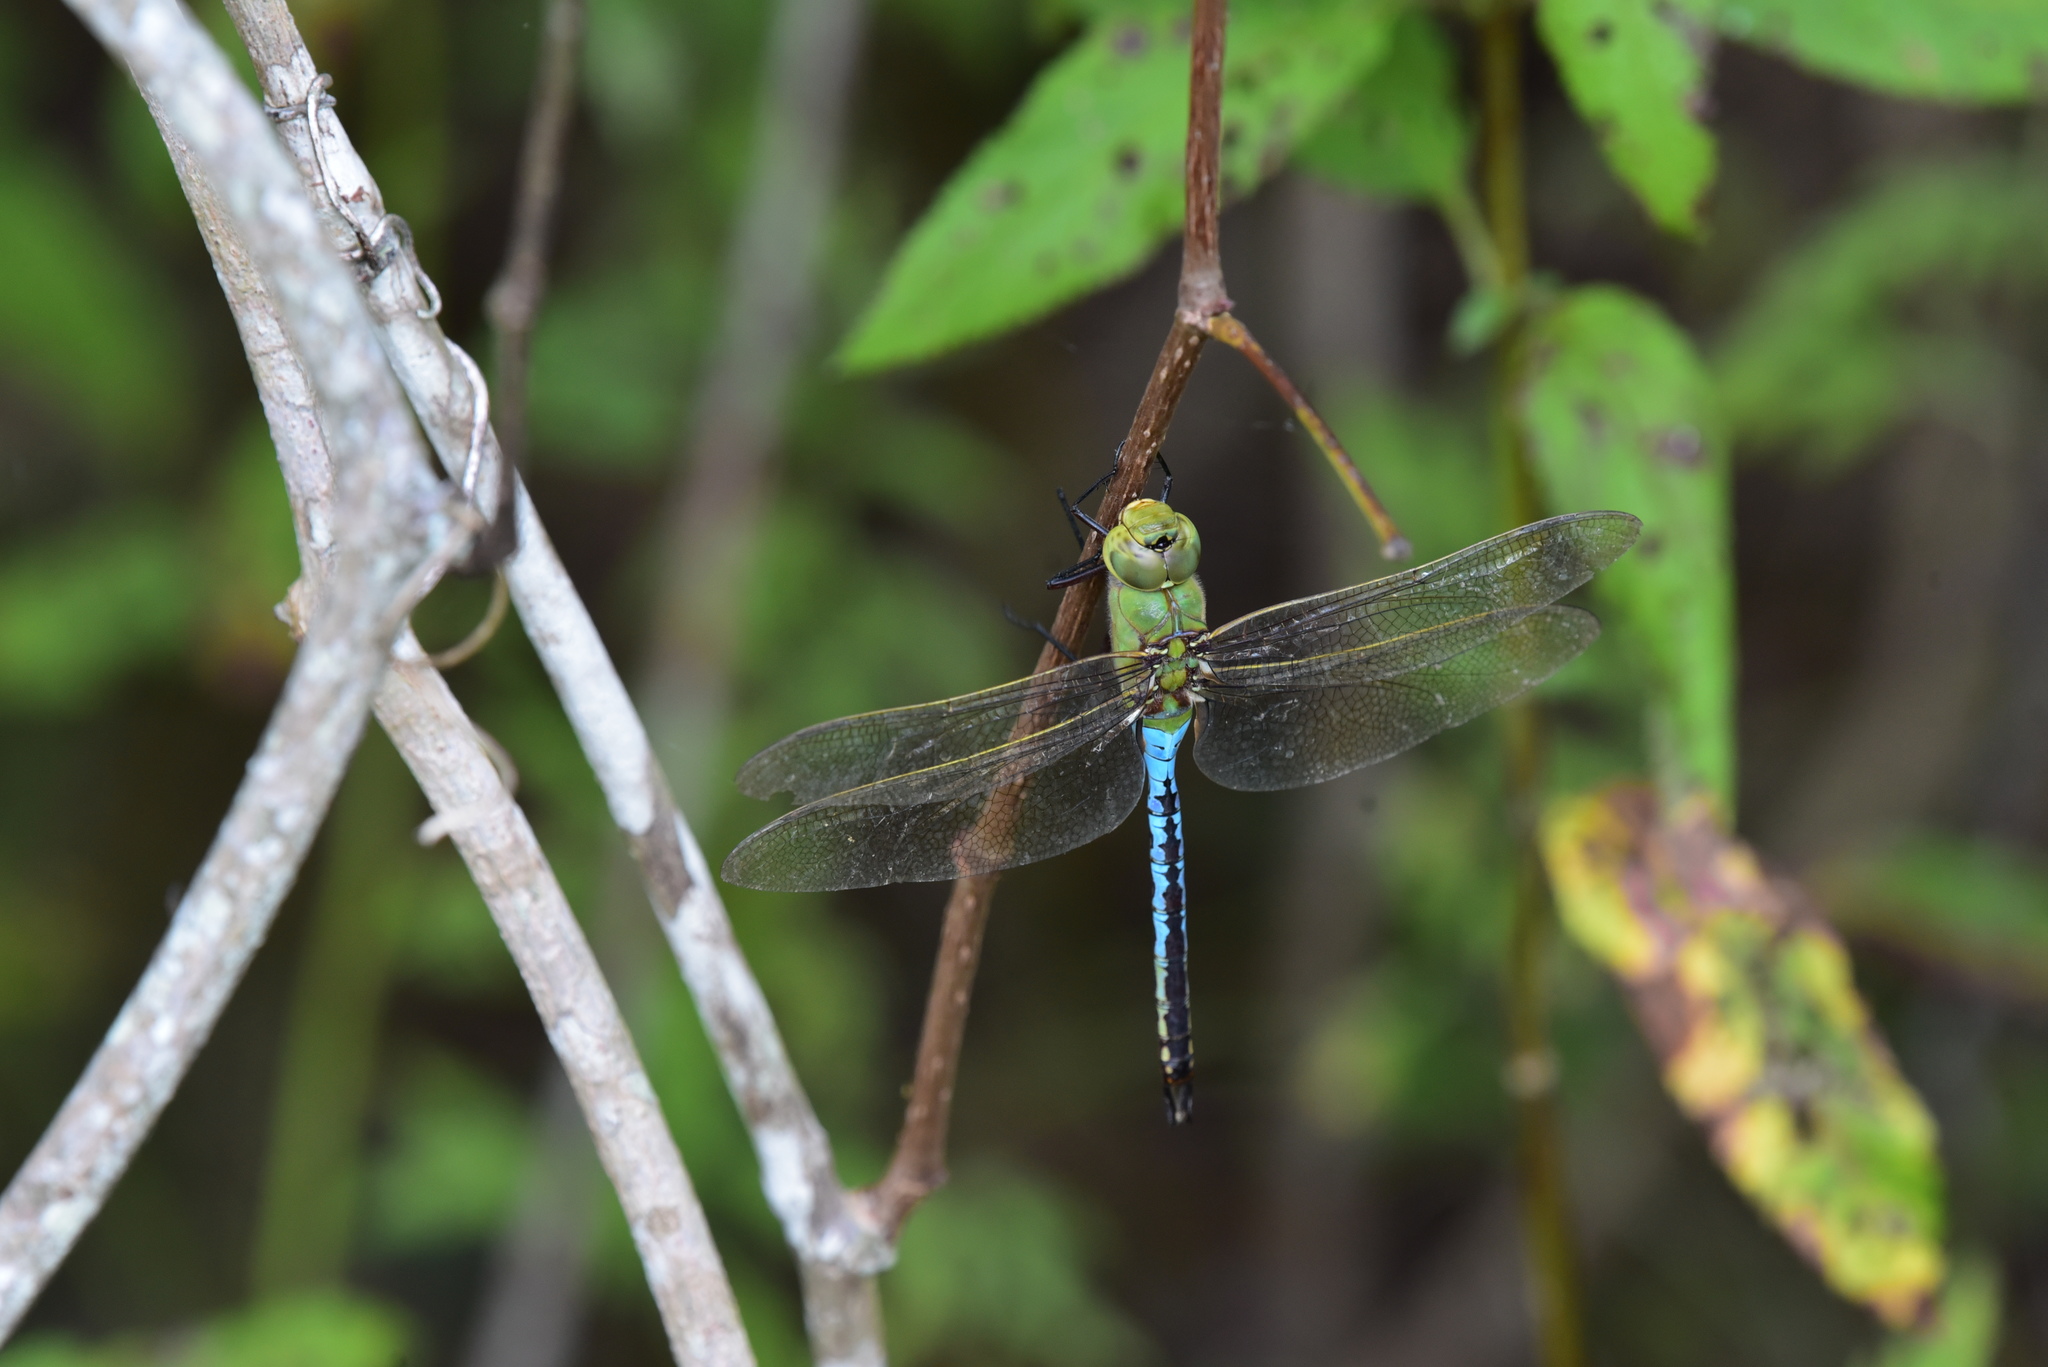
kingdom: Animalia
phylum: Arthropoda
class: Insecta
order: Odonata
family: Aeshnidae
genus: Anax
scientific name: Anax junius
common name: Common green darner
